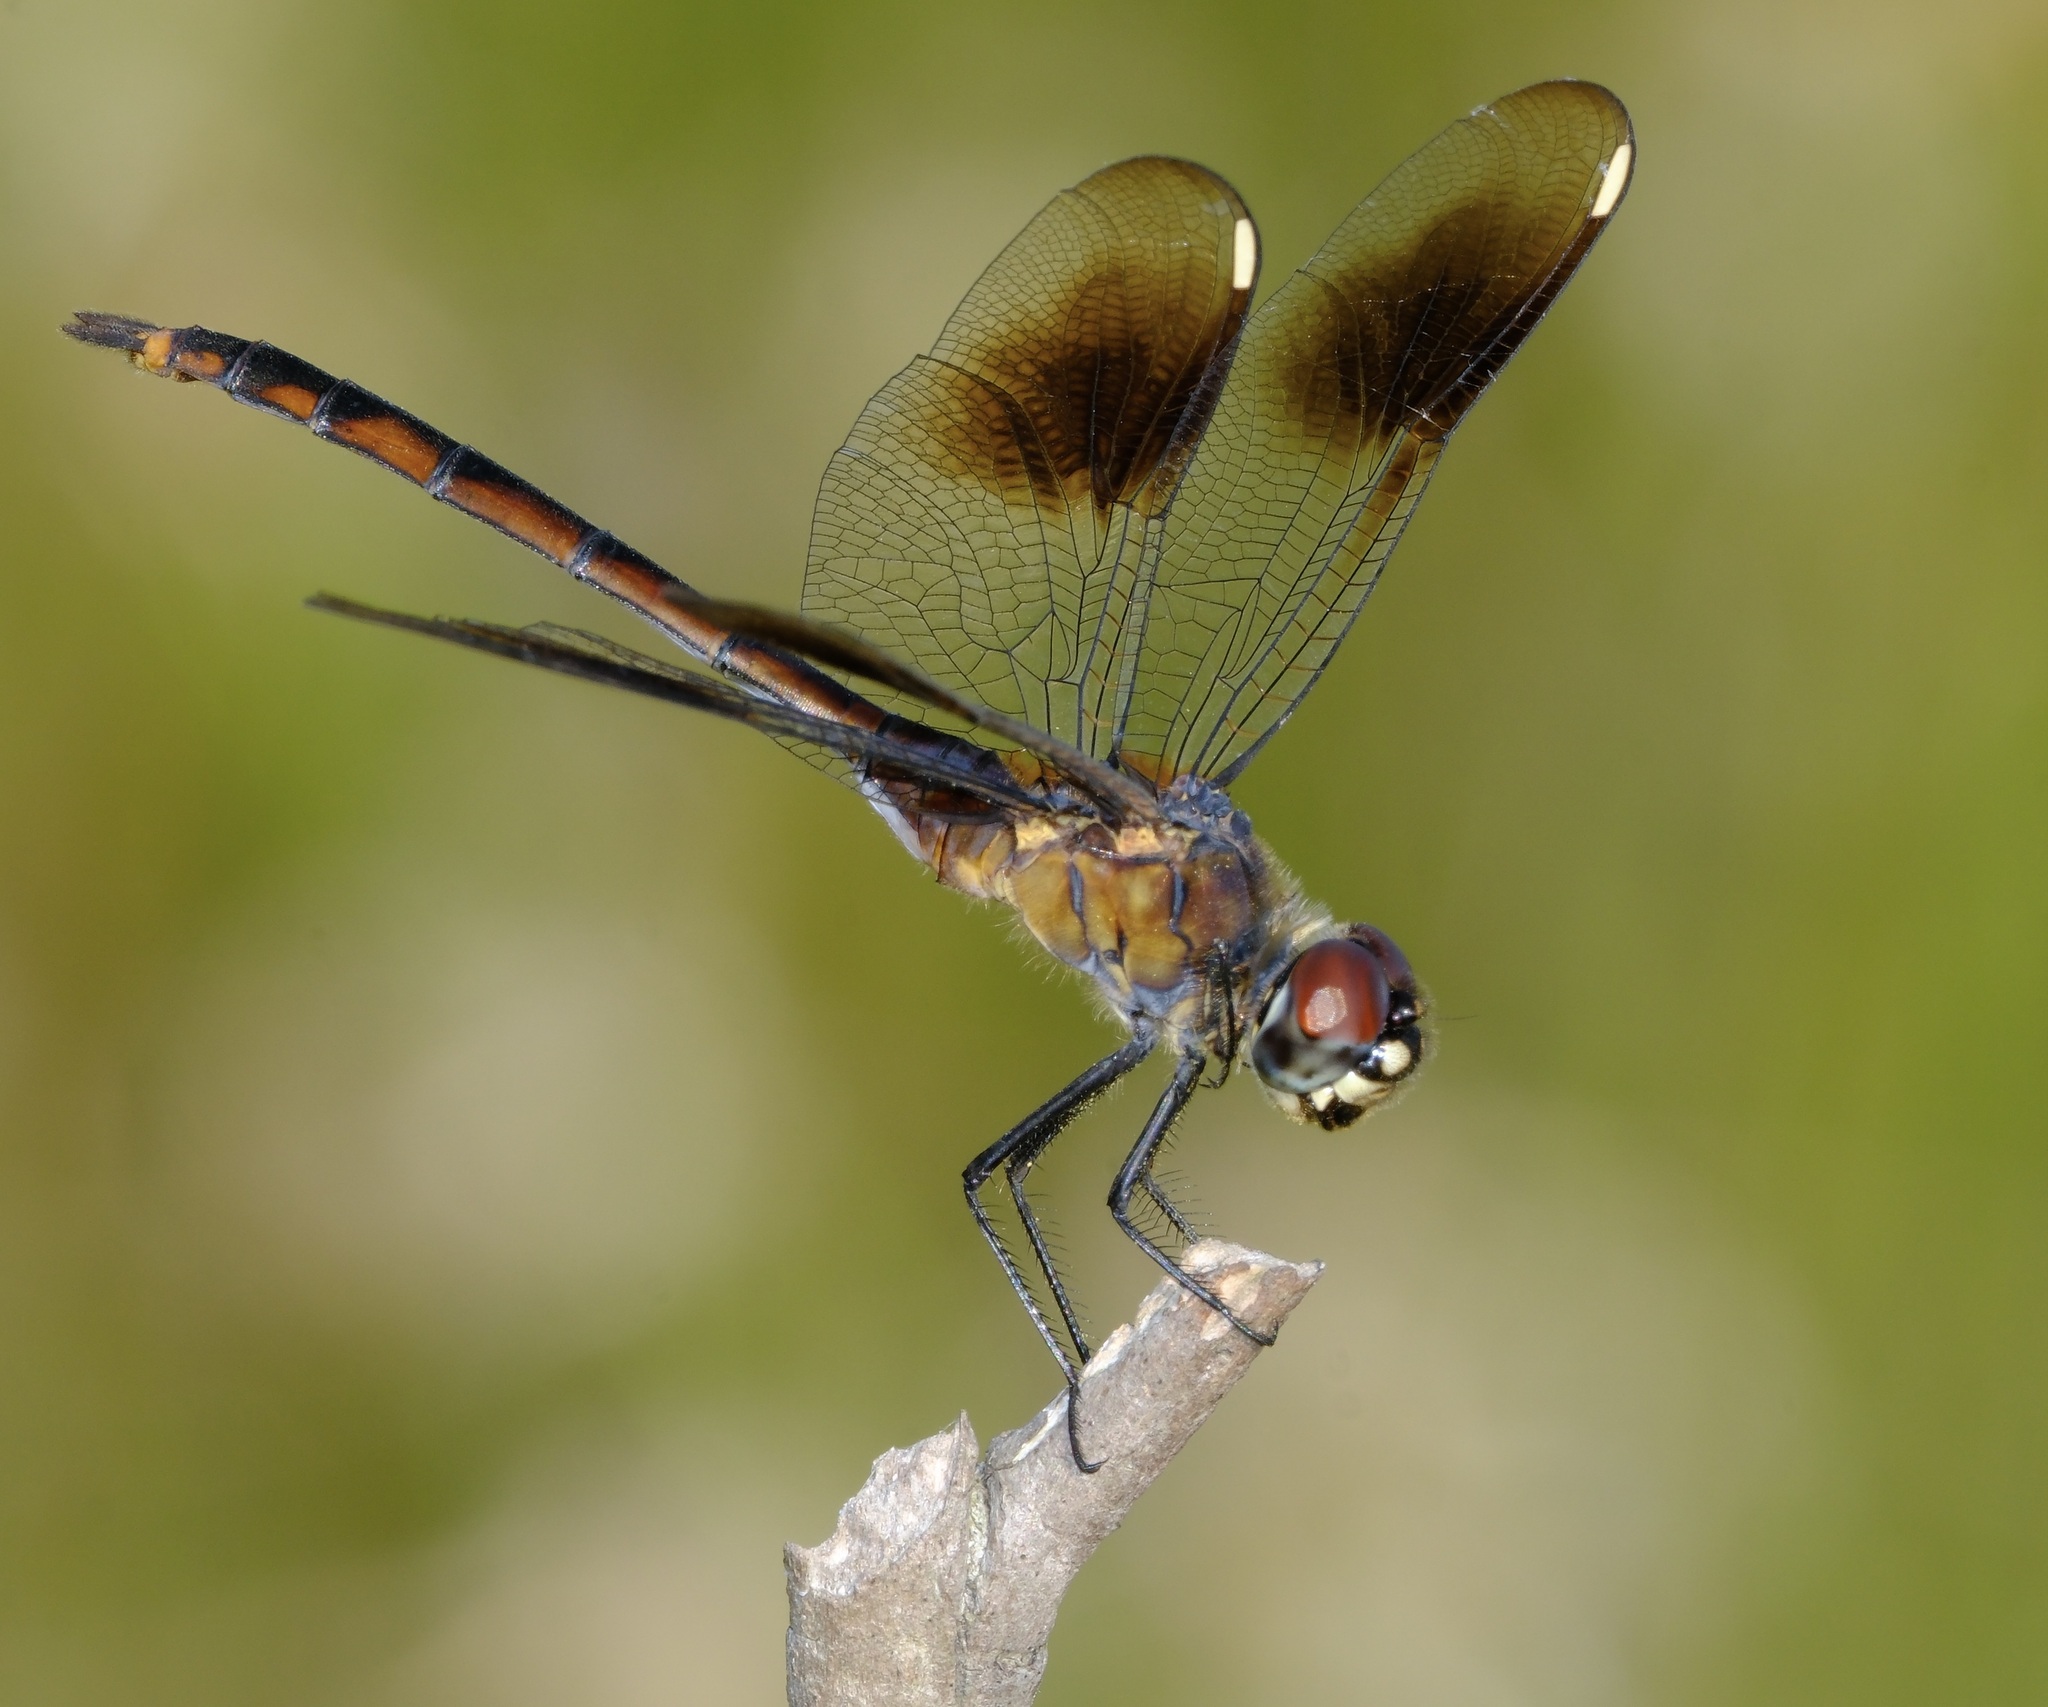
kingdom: Animalia
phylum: Arthropoda
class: Insecta
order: Odonata
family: Libellulidae
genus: Brachymesia
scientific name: Brachymesia gravida
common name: Four-spotted pennant
